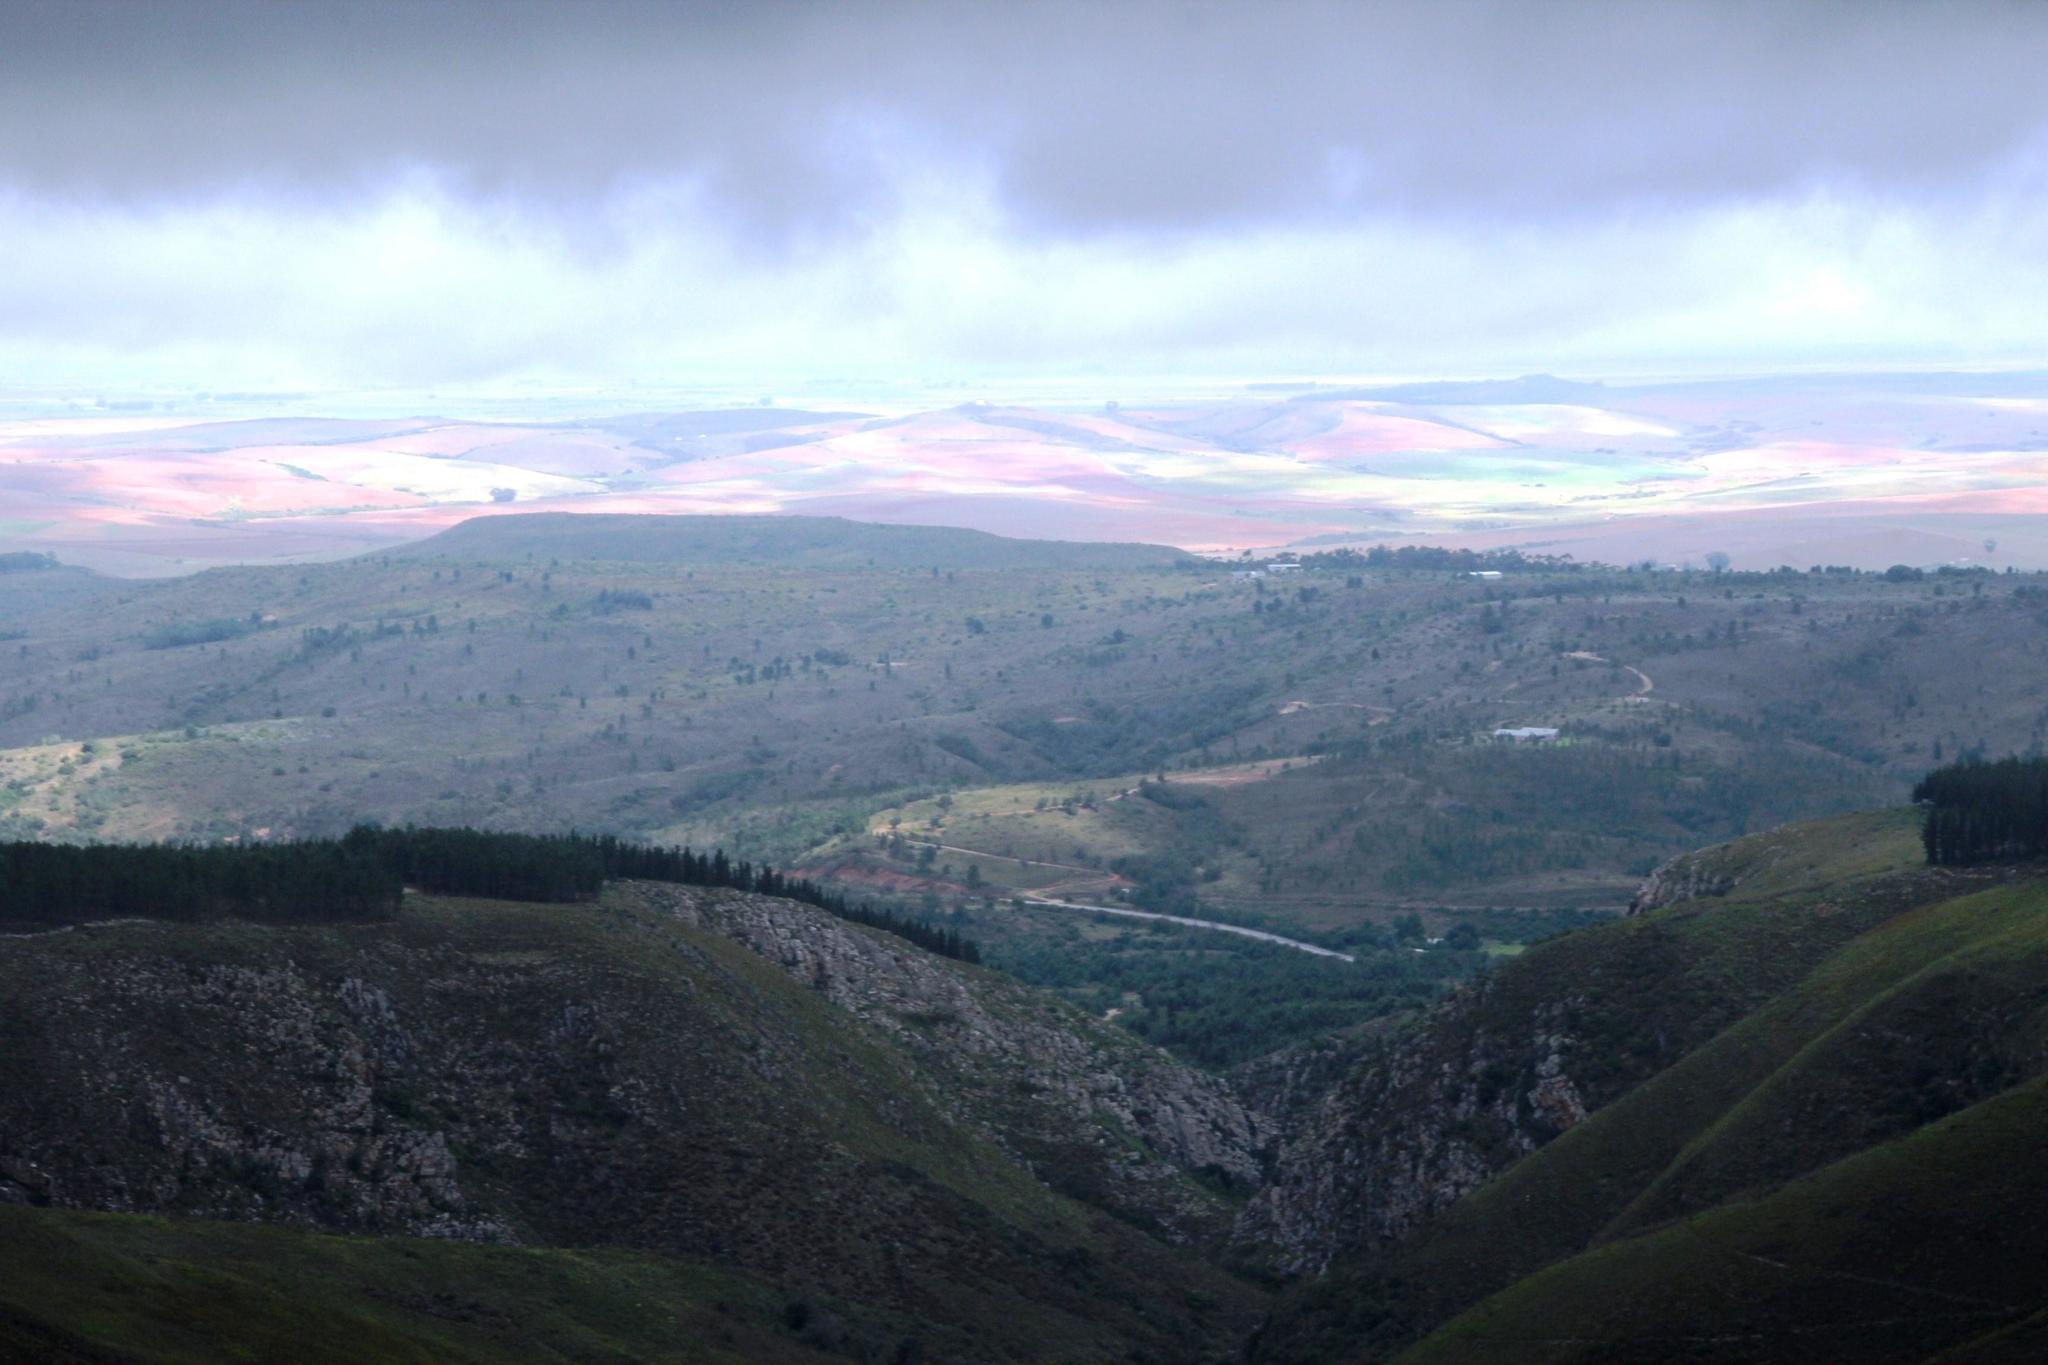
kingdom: Plantae
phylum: Tracheophyta
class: Pinopsida
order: Pinales
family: Pinaceae
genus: Pinus
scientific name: Pinus pinaster
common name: Maritime pine
